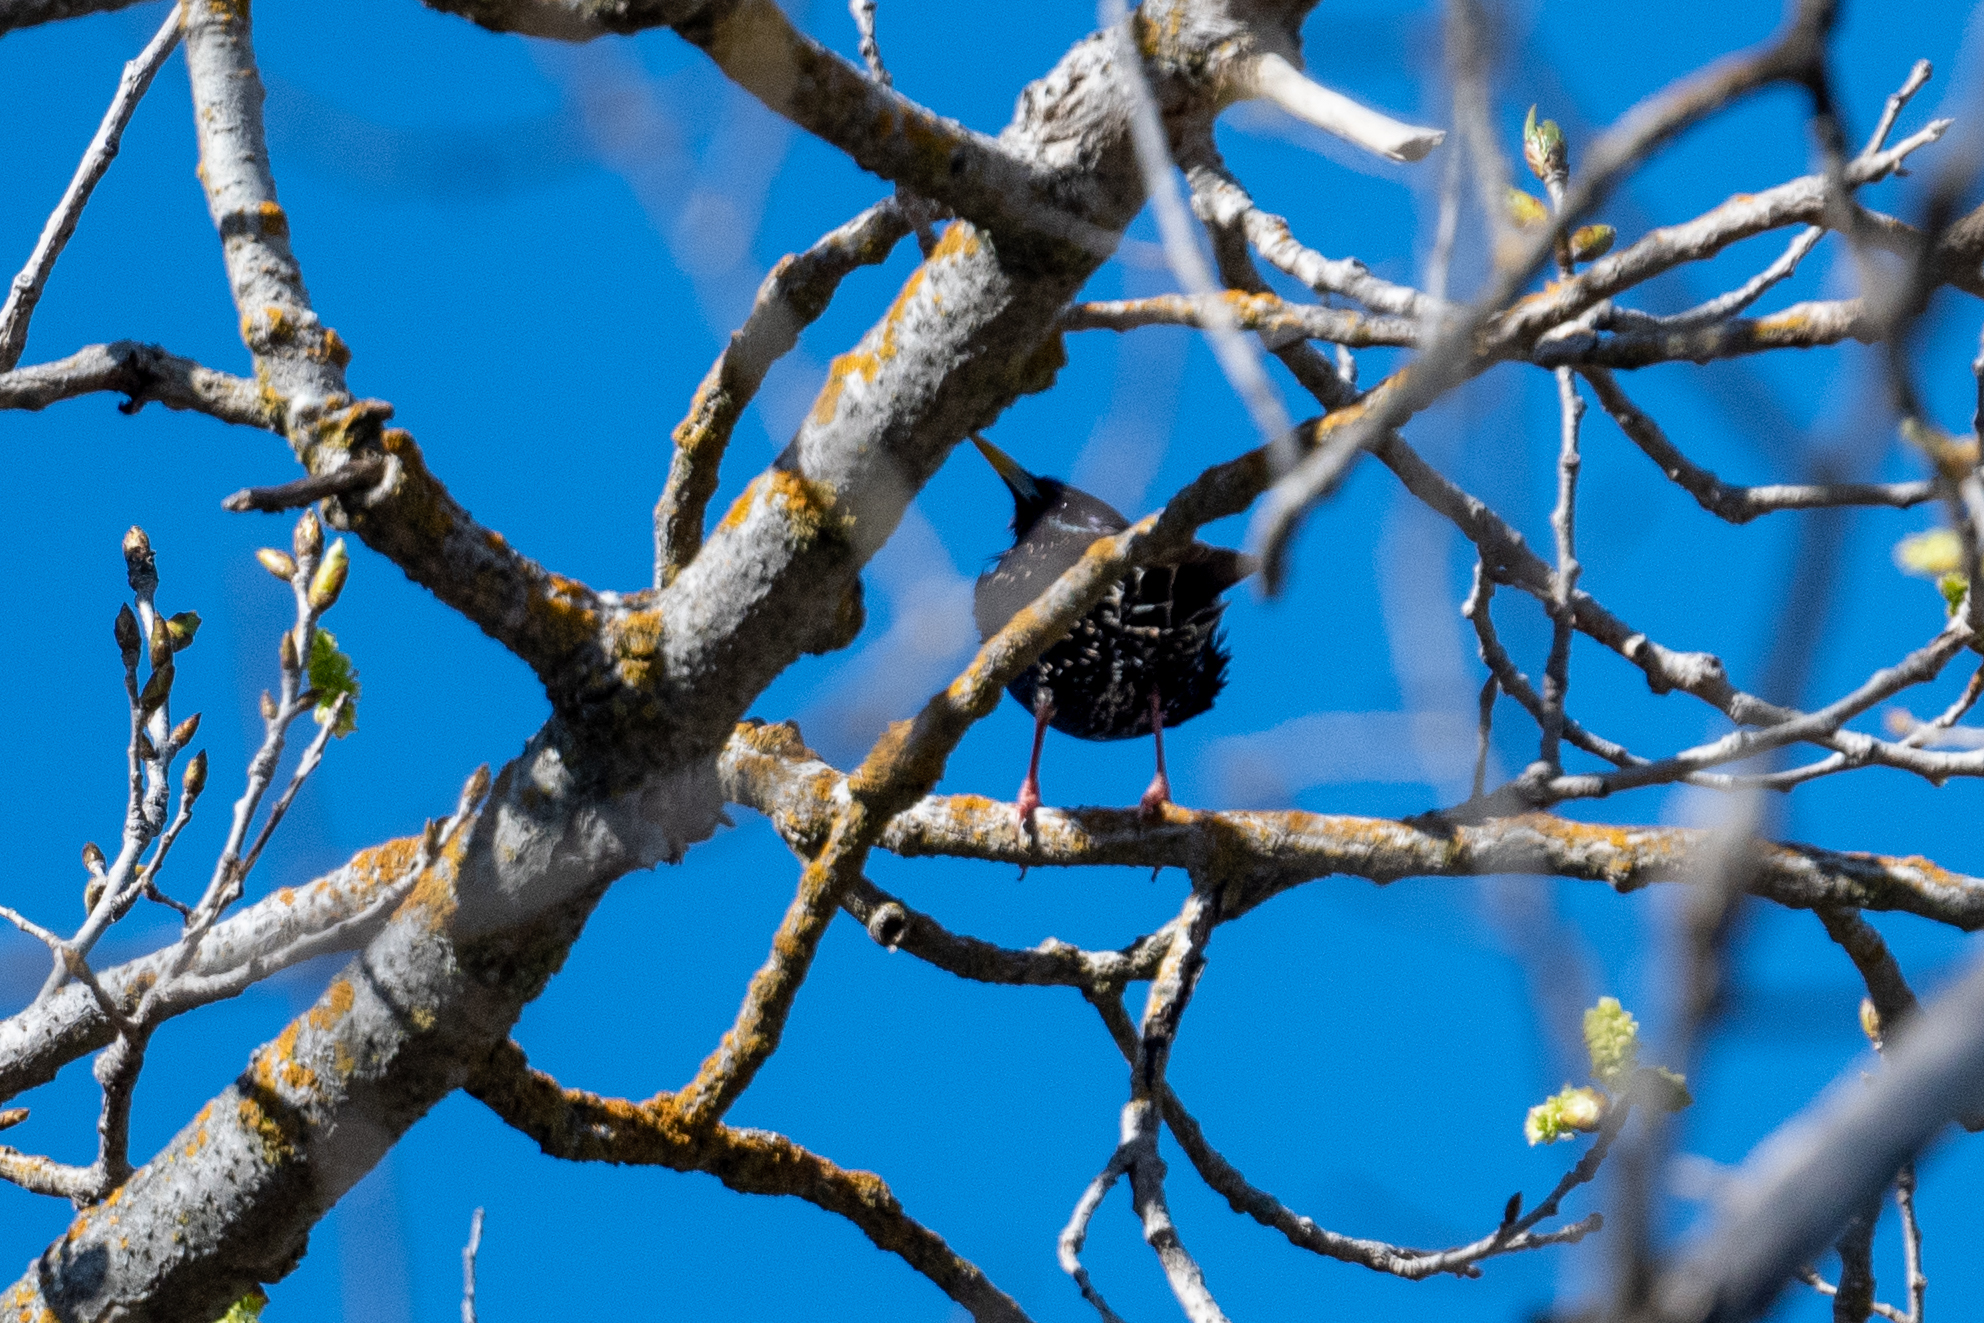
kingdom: Animalia
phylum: Chordata
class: Aves
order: Passeriformes
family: Sturnidae
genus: Sturnus
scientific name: Sturnus vulgaris
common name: Common starling
